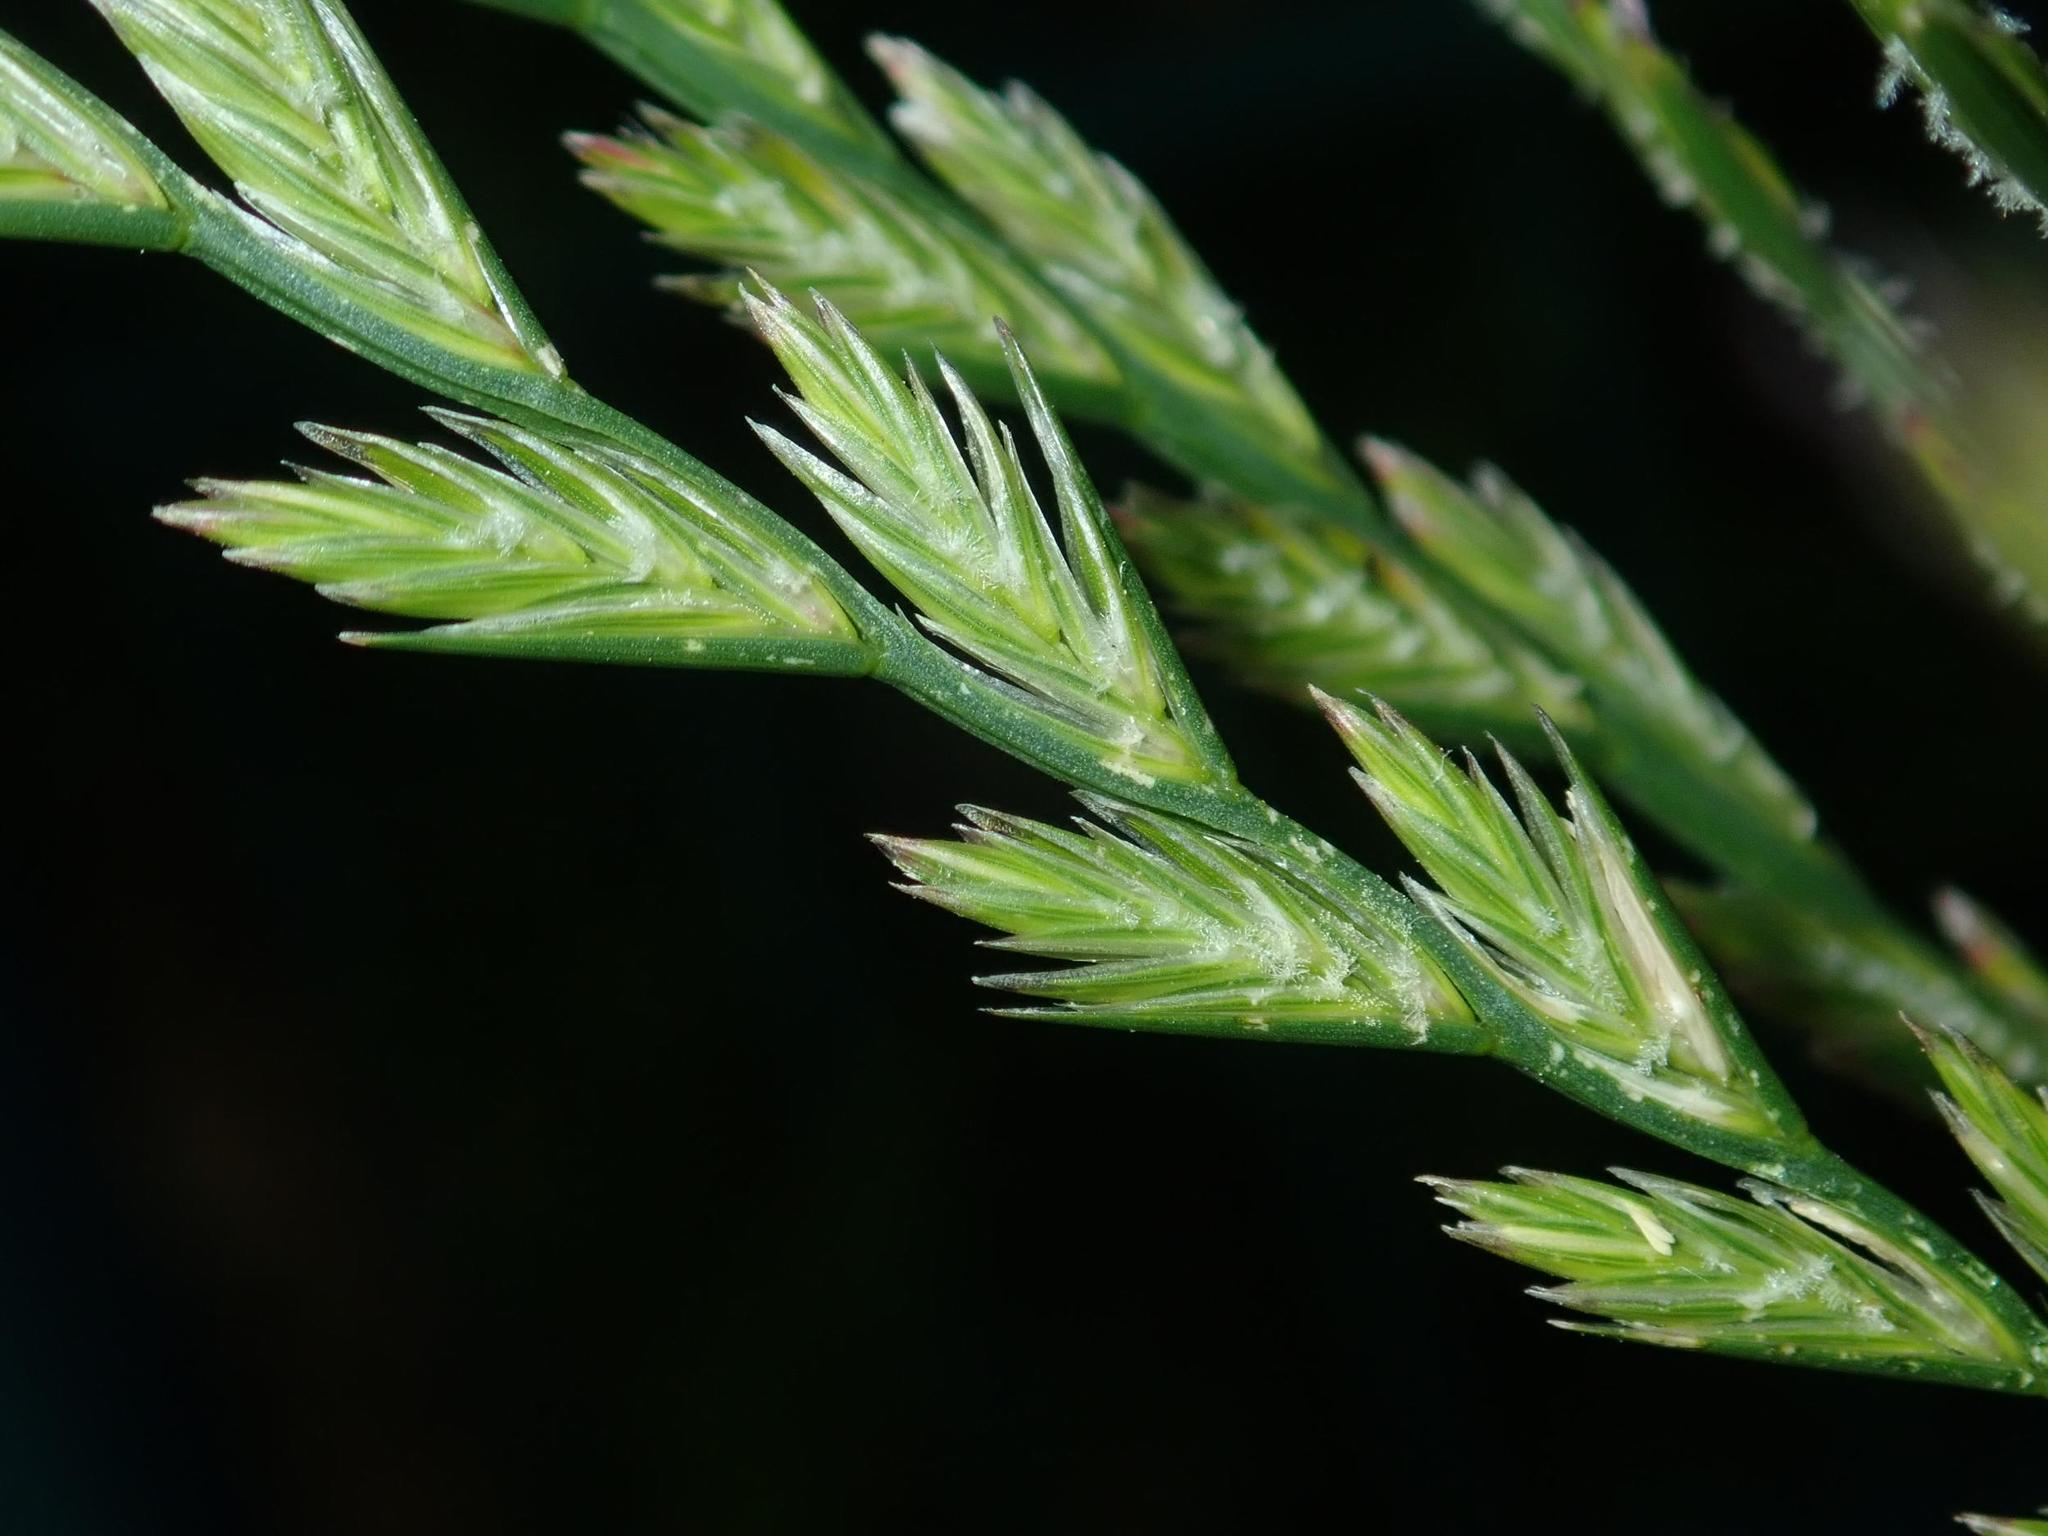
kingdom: Plantae
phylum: Tracheophyta
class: Liliopsida
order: Poales
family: Poaceae
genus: Lolium
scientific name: Lolium perenne
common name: Perennial ryegrass
